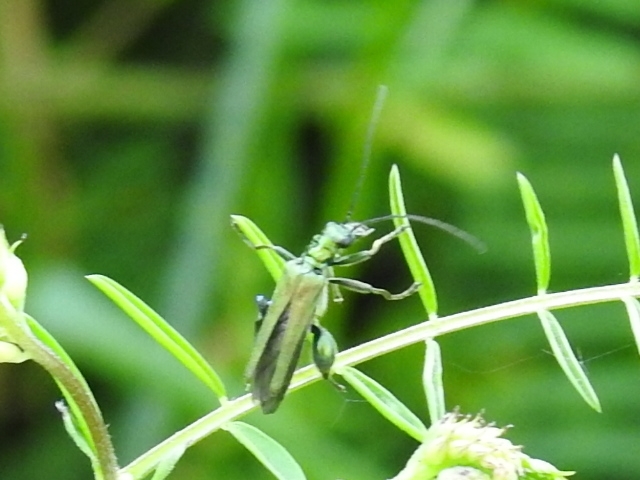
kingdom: Animalia
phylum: Arthropoda
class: Insecta
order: Coleoptera
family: Oedemeridae
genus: Oedemera
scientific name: Oedemera nobilis
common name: Swollen-thighed beetle
